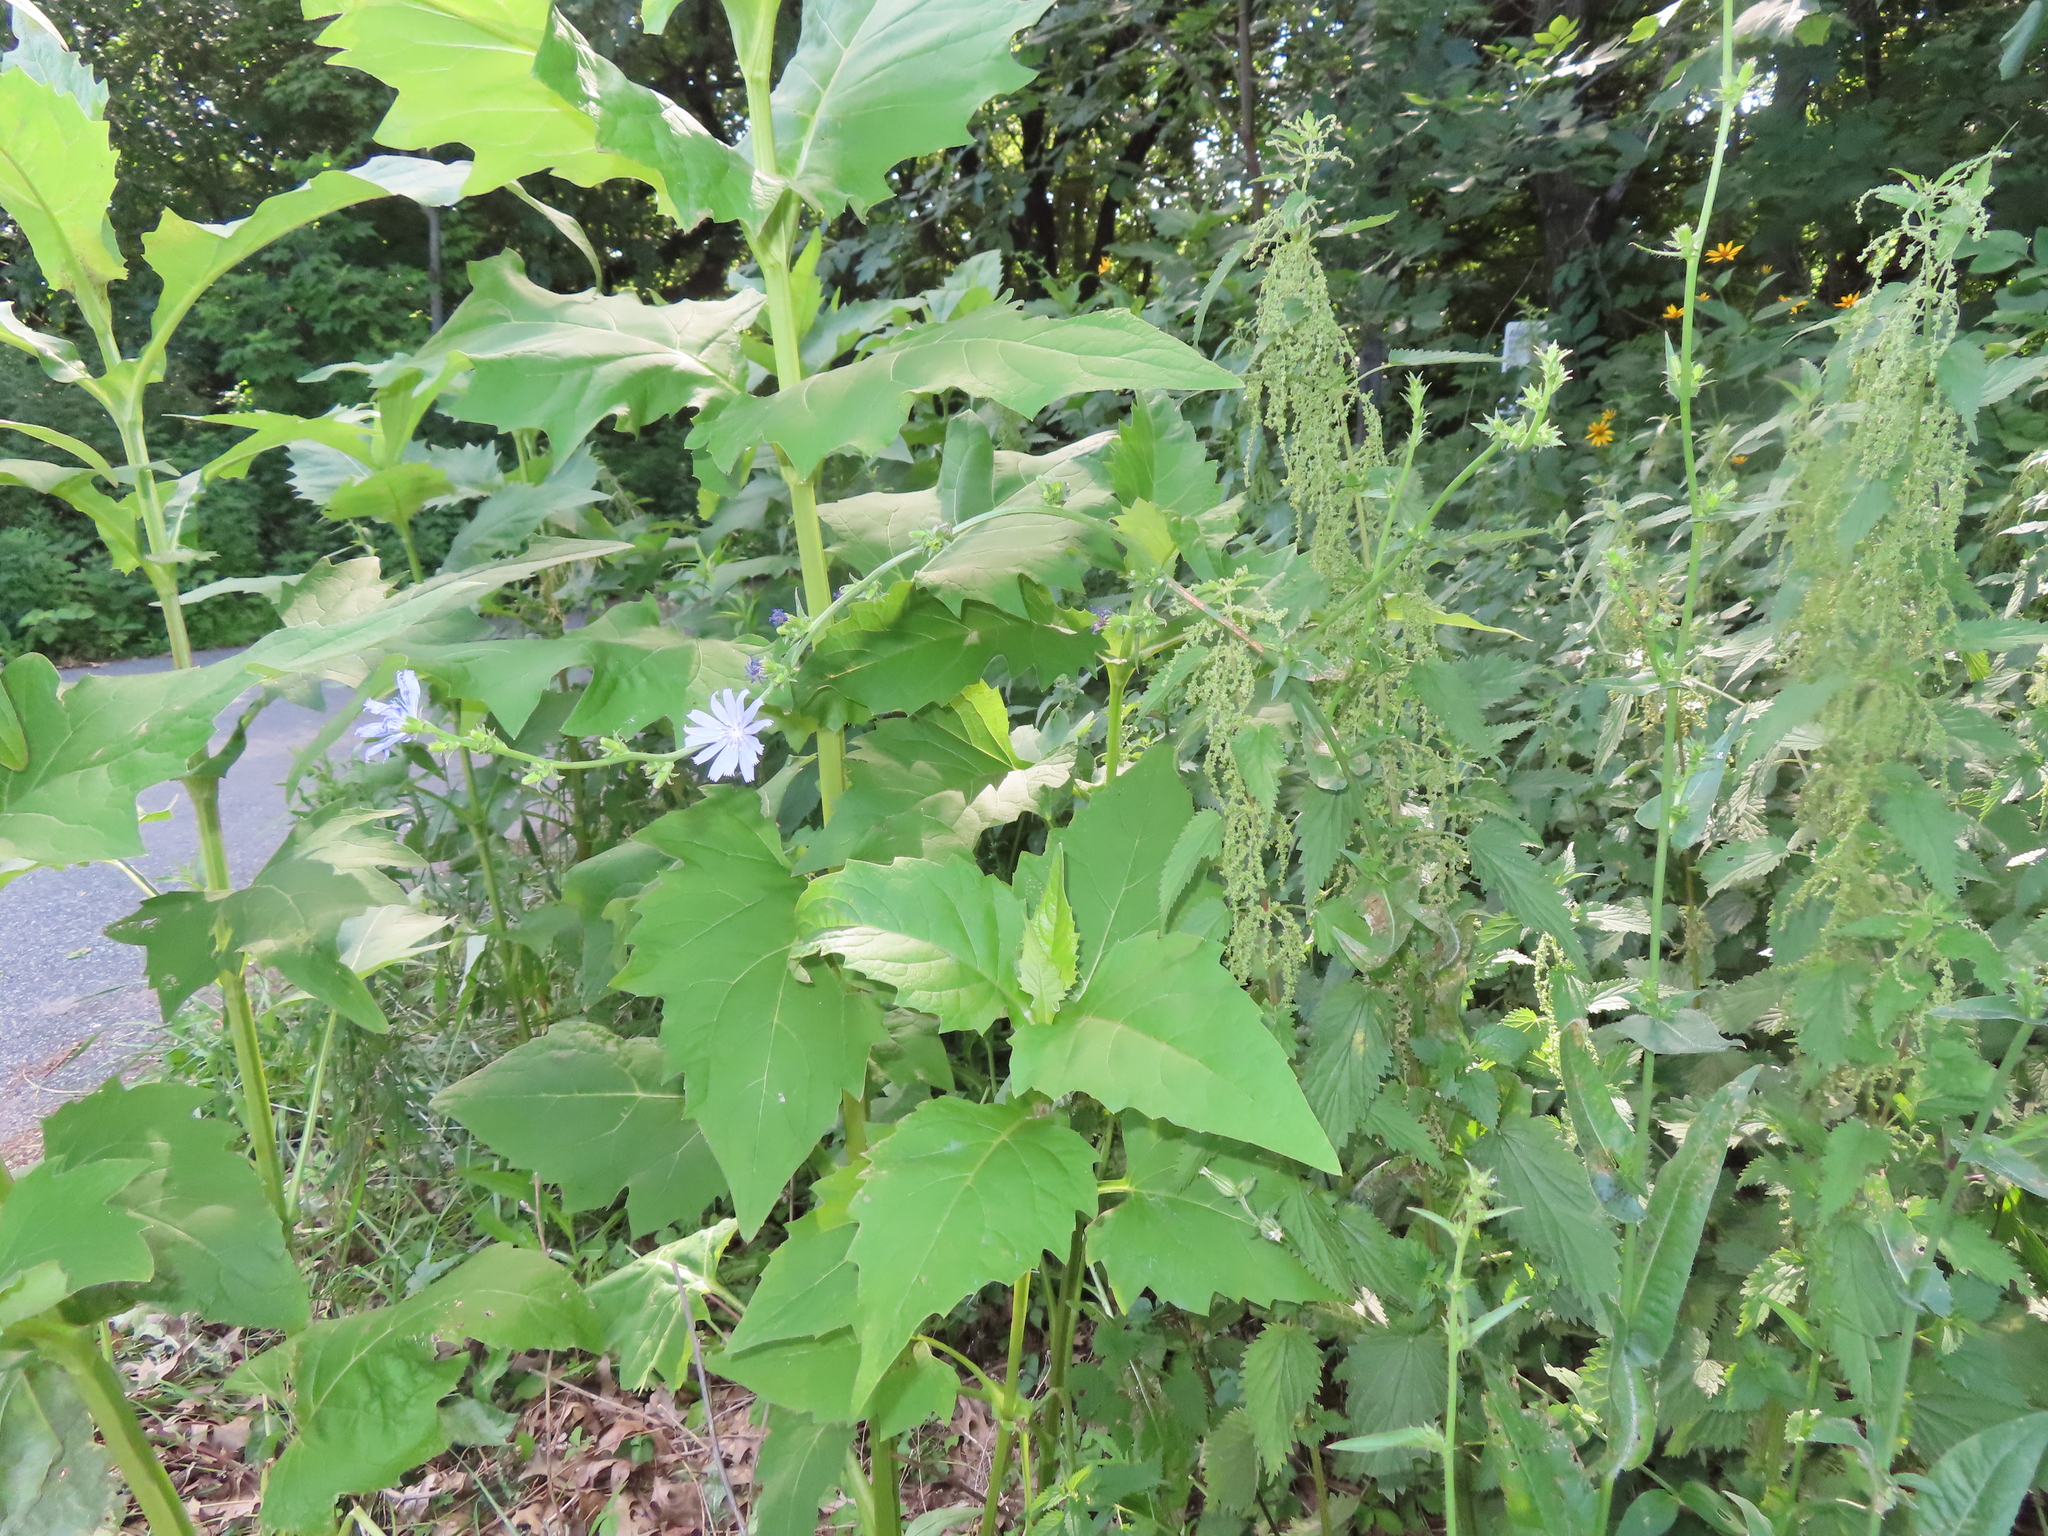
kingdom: Plantae
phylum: Tracheophyta
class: Magnoliopsida
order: Asterales
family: Asteraceae
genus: Cichorium
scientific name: Cichorium intybus
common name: Chicory
